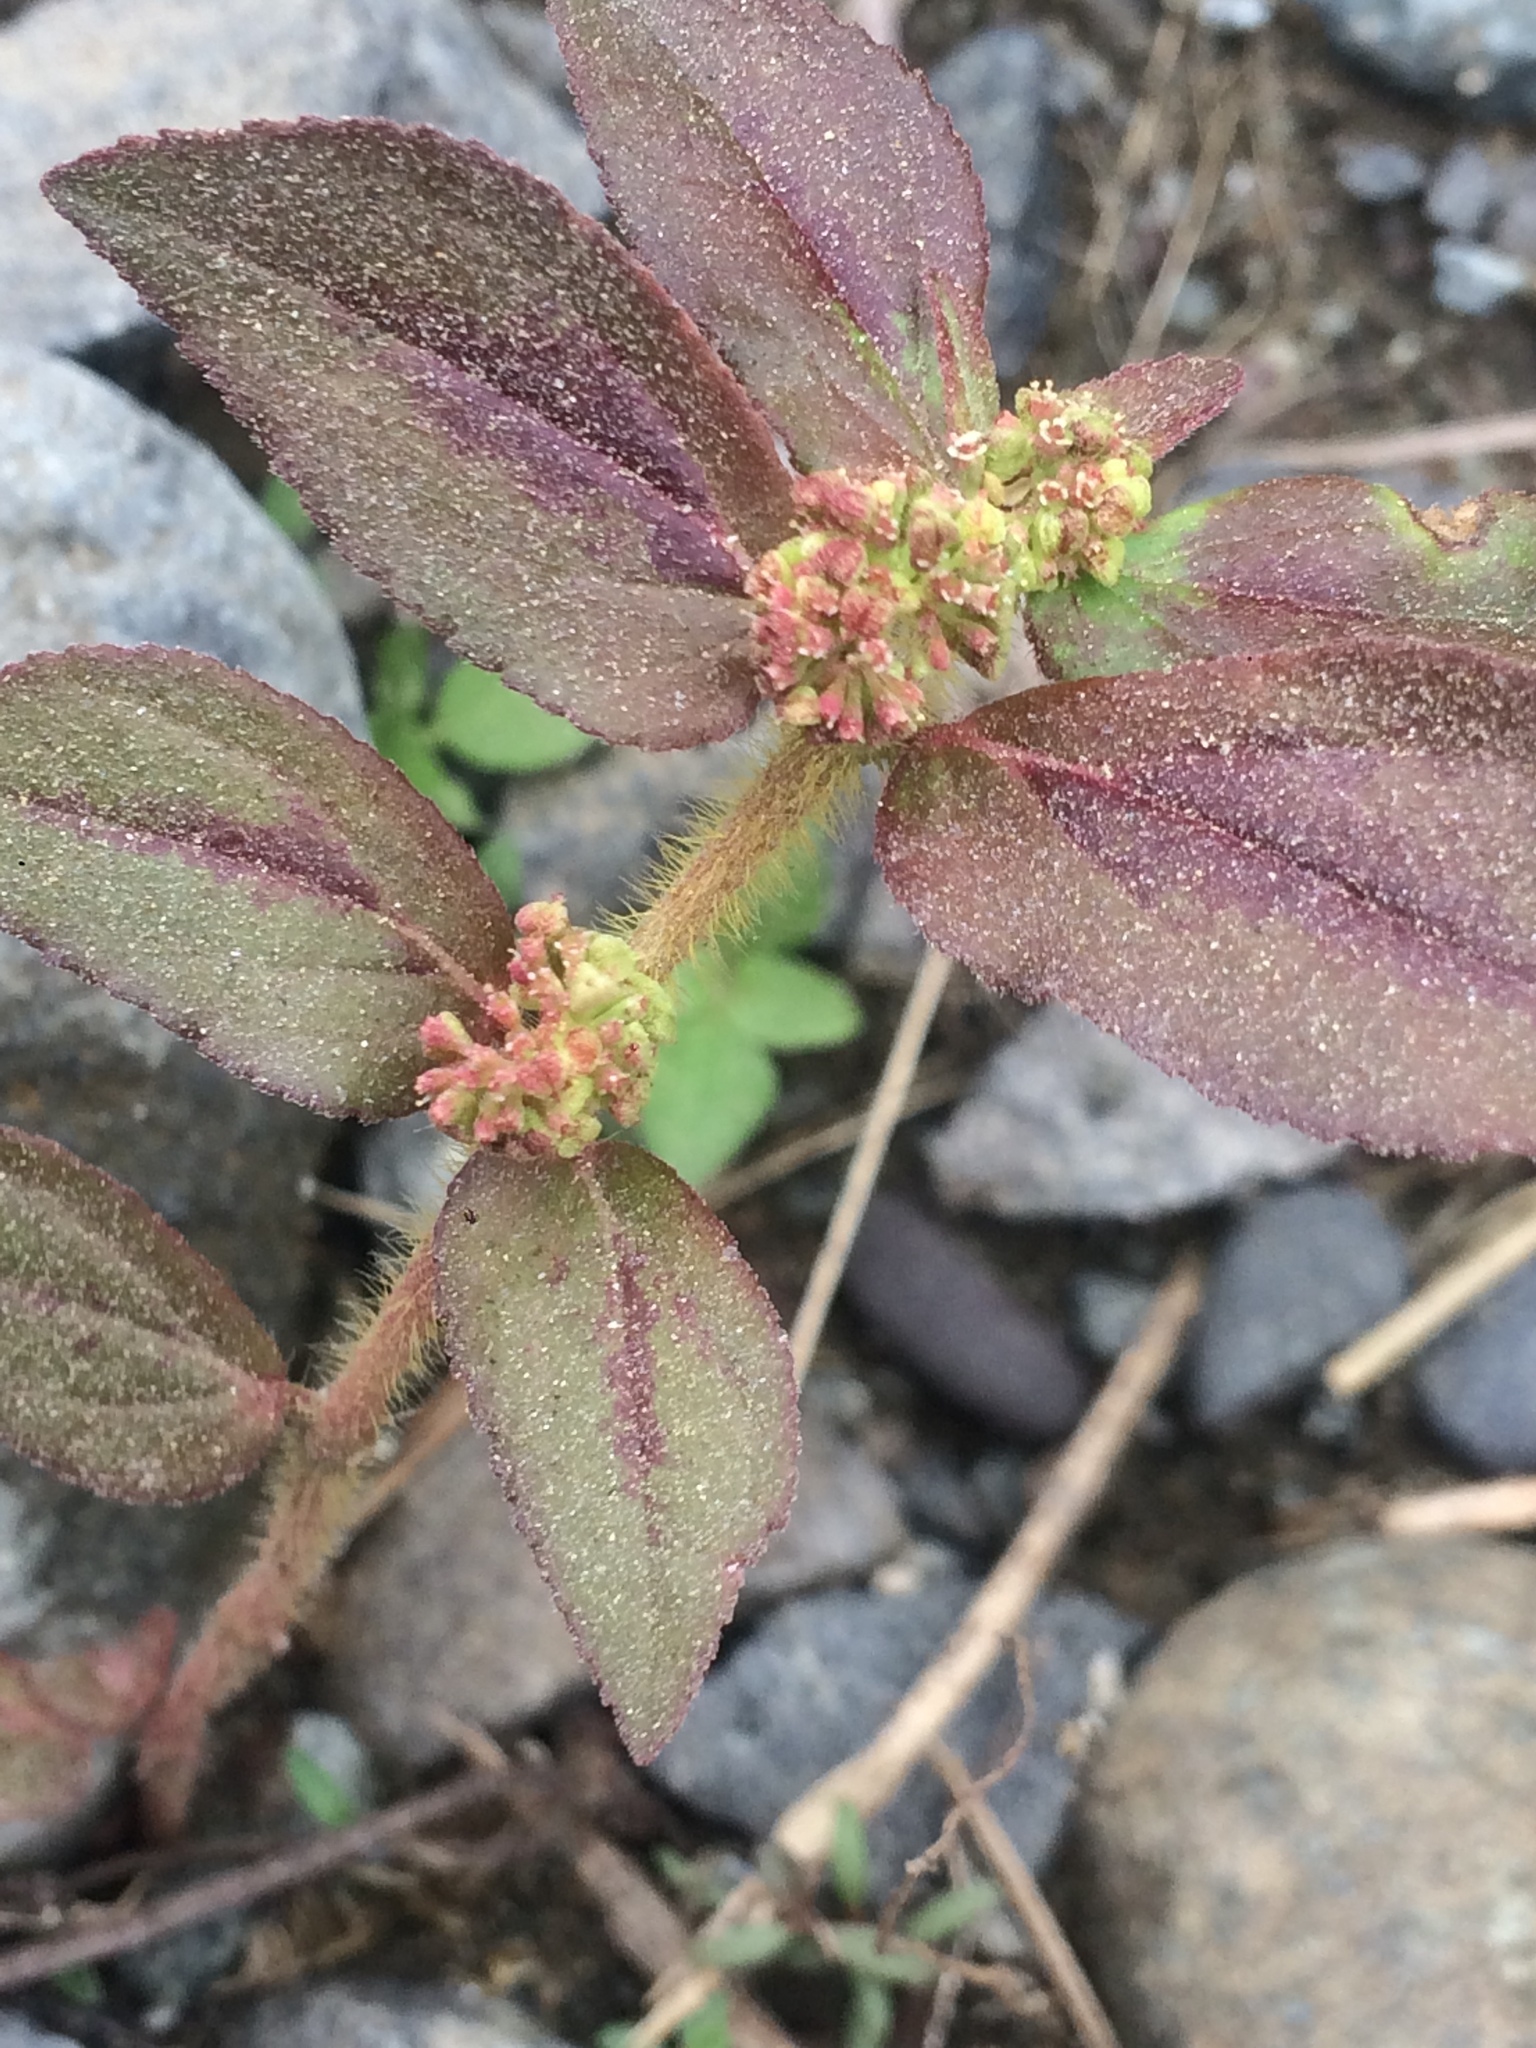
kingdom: Plantae
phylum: Tracheophyta
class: Magnoliopsida
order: Malpighiales
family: Euphorbiaceae
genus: Euphorbia
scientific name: Euphorbia hirta
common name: Pillpod sandmat
